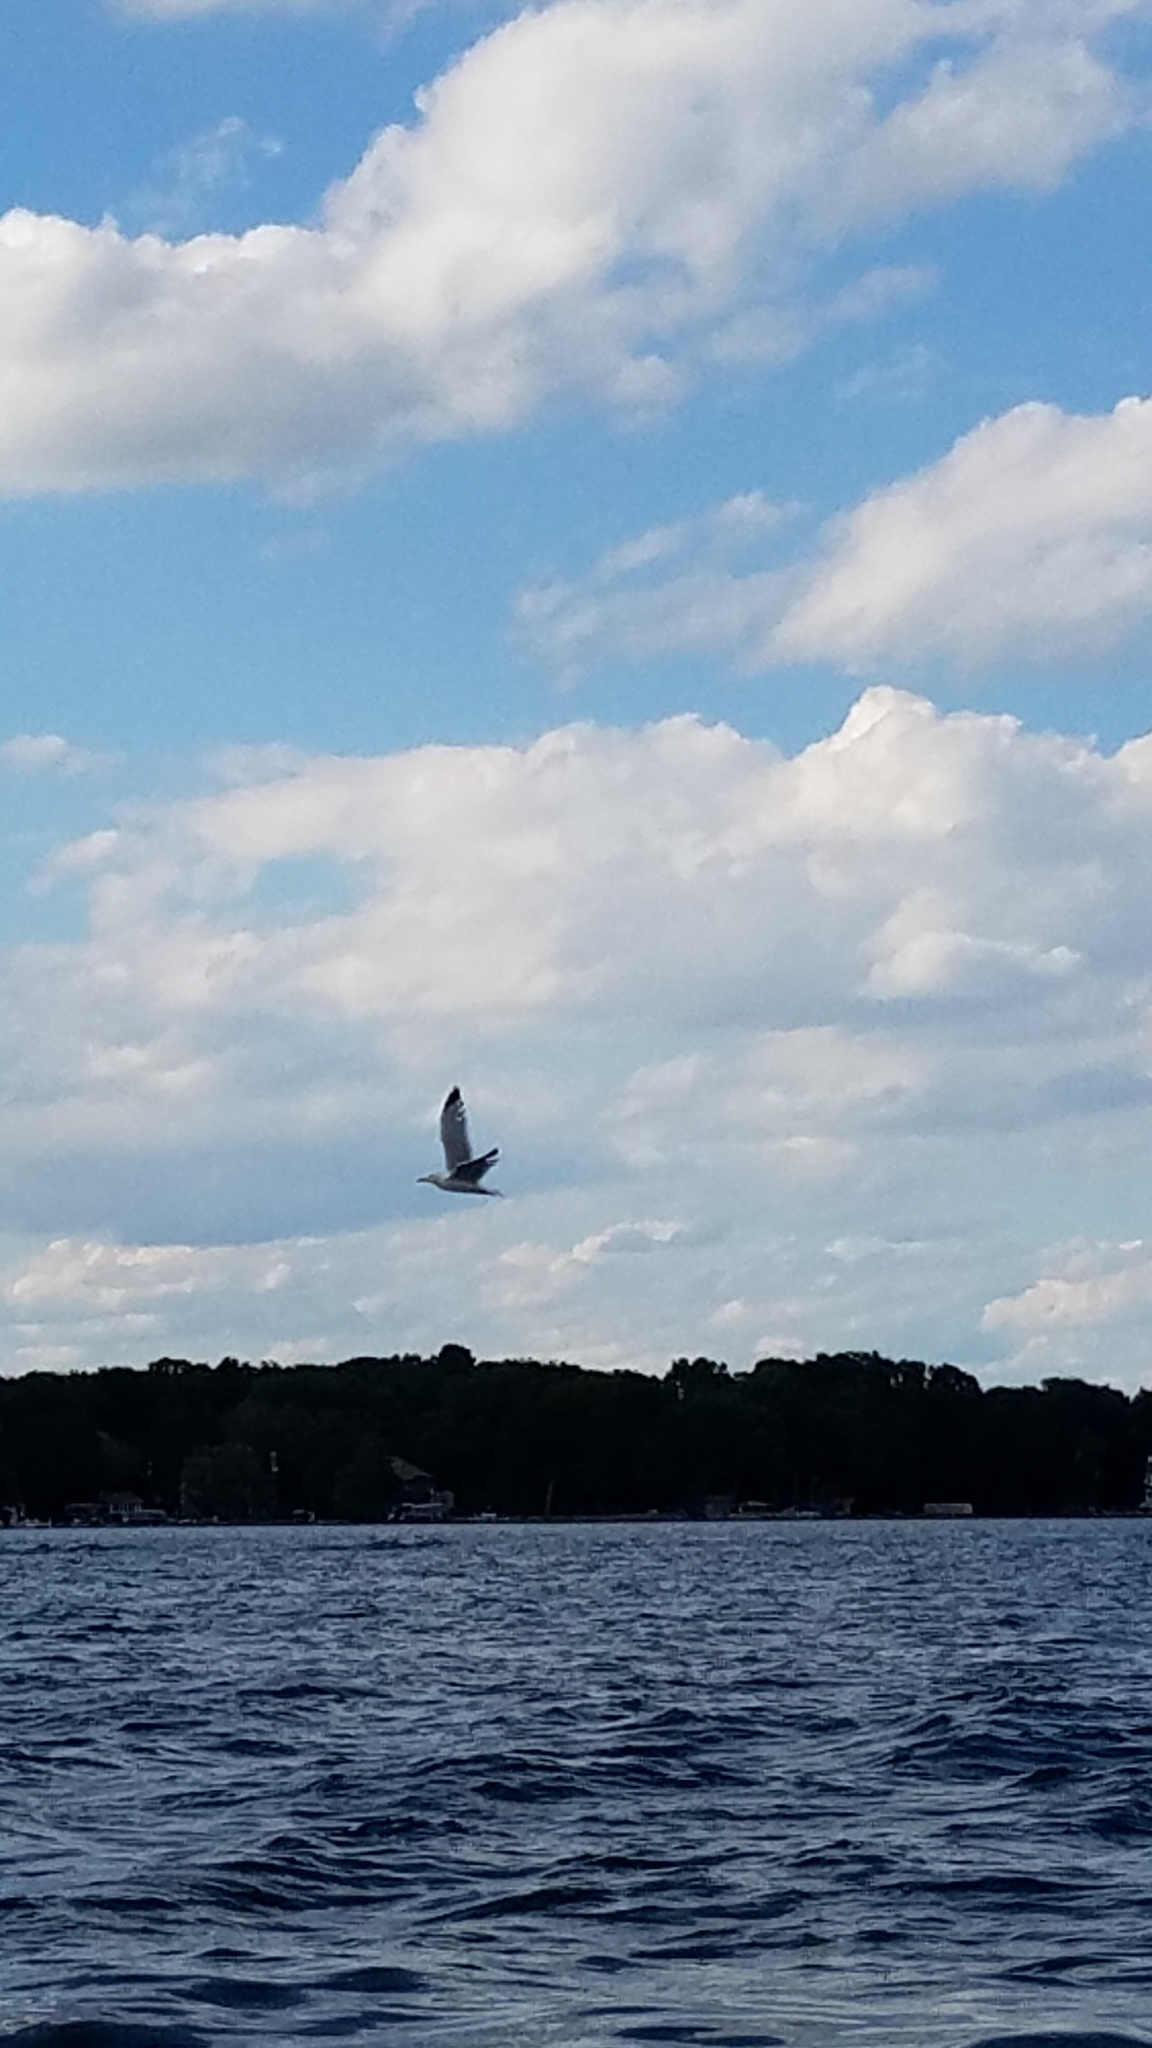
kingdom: Animalia
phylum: Chordata
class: Aves
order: Charadriiformes
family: Laridae
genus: Larus
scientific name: Larus argentatus
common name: Herring gull
